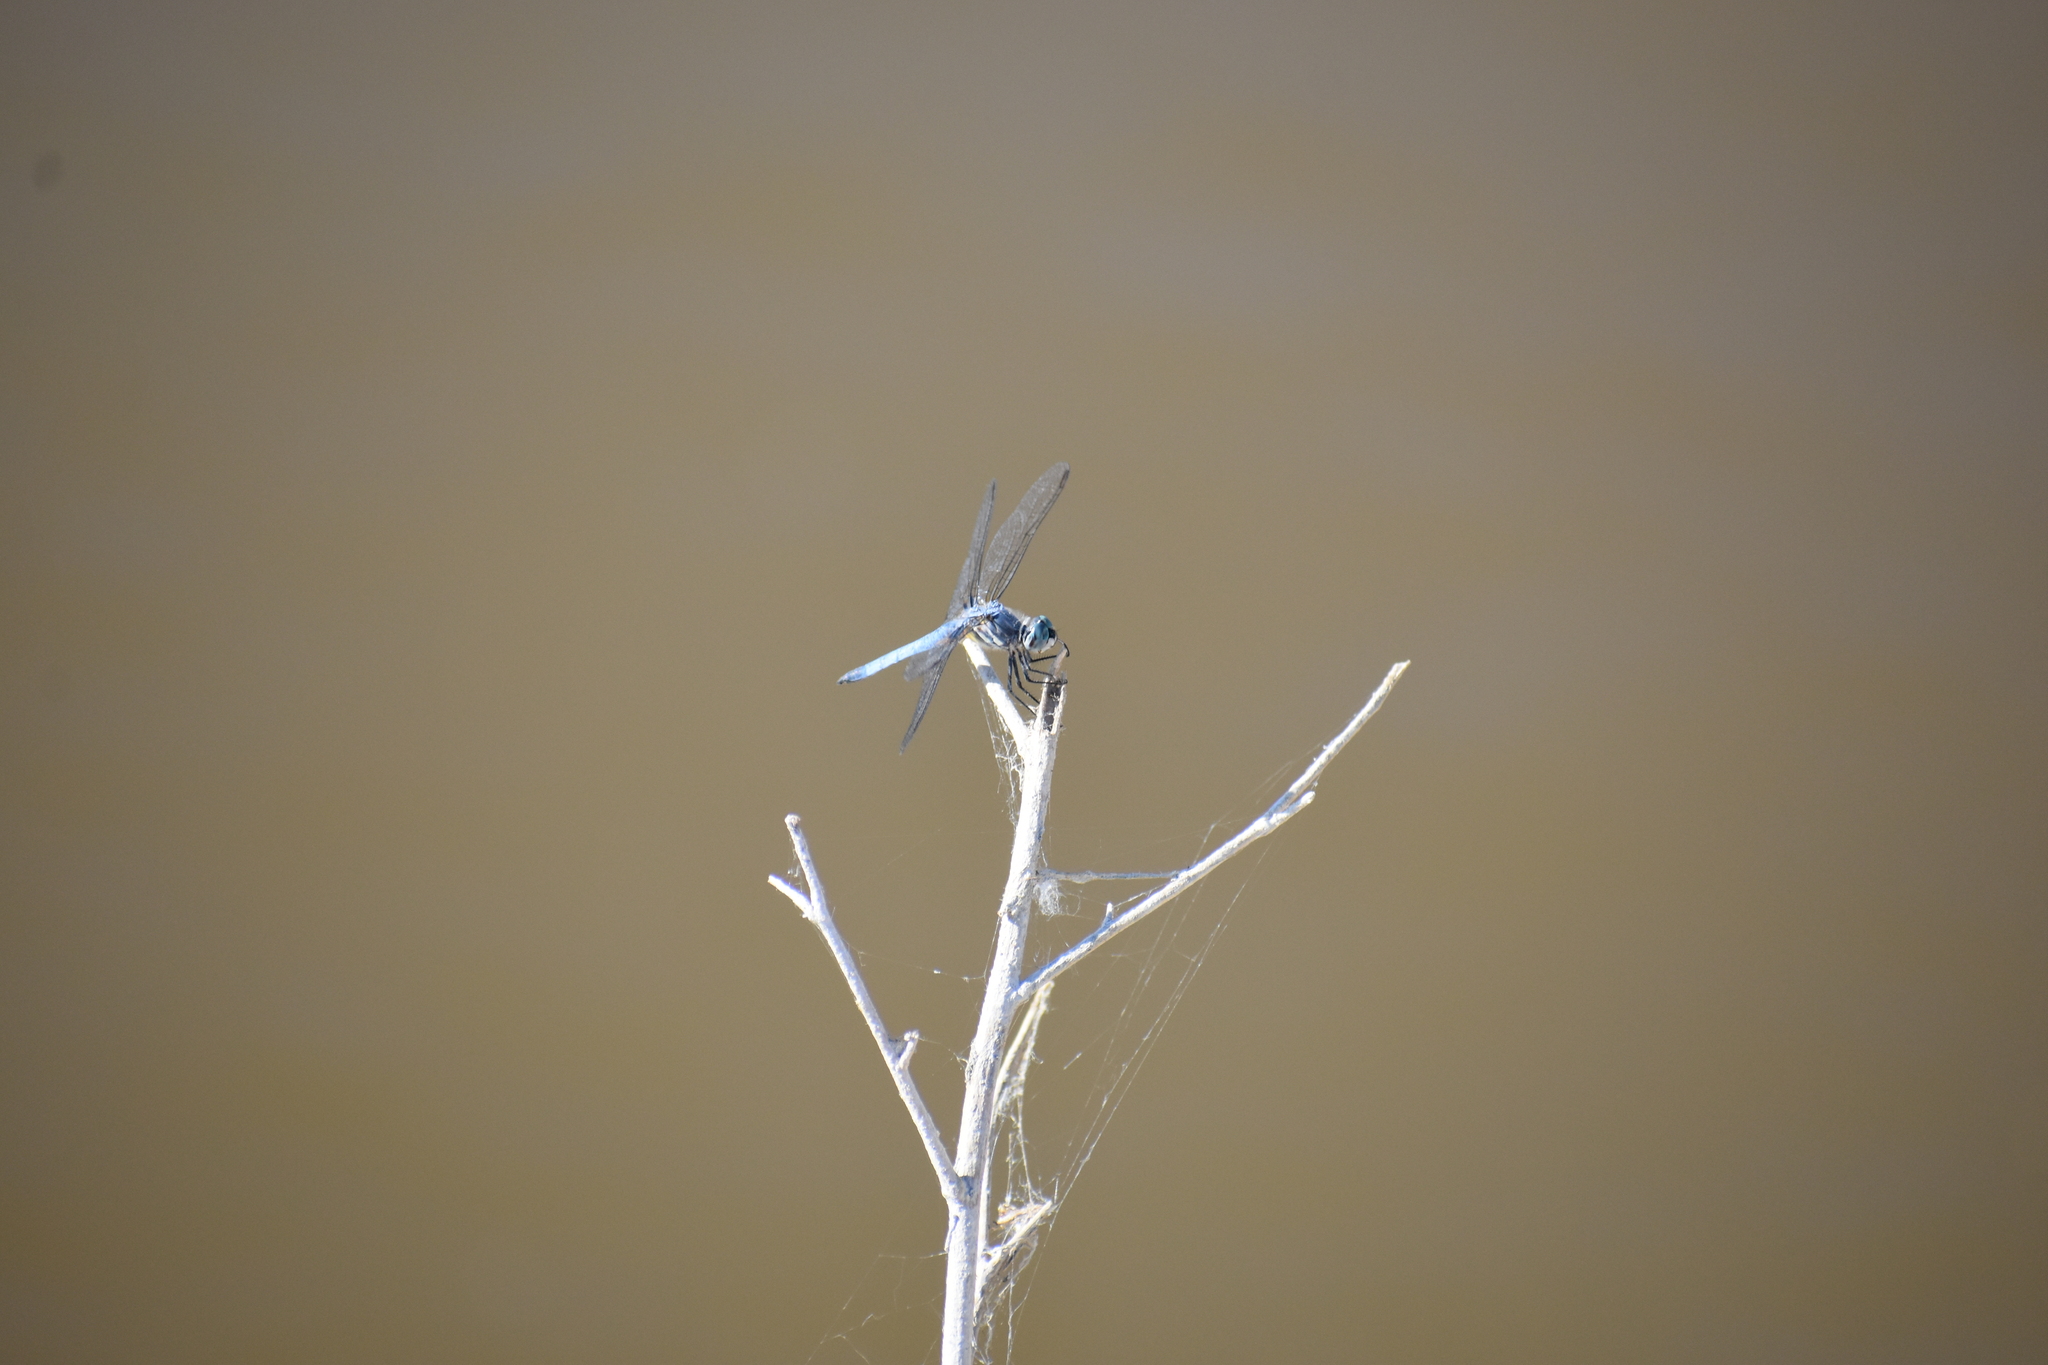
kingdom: Animalia
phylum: Arthropoda
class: Insecta
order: Odonata
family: Libellulidae
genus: Pachydiplax
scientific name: Pachydiplax longipennis
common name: Blue dasher
